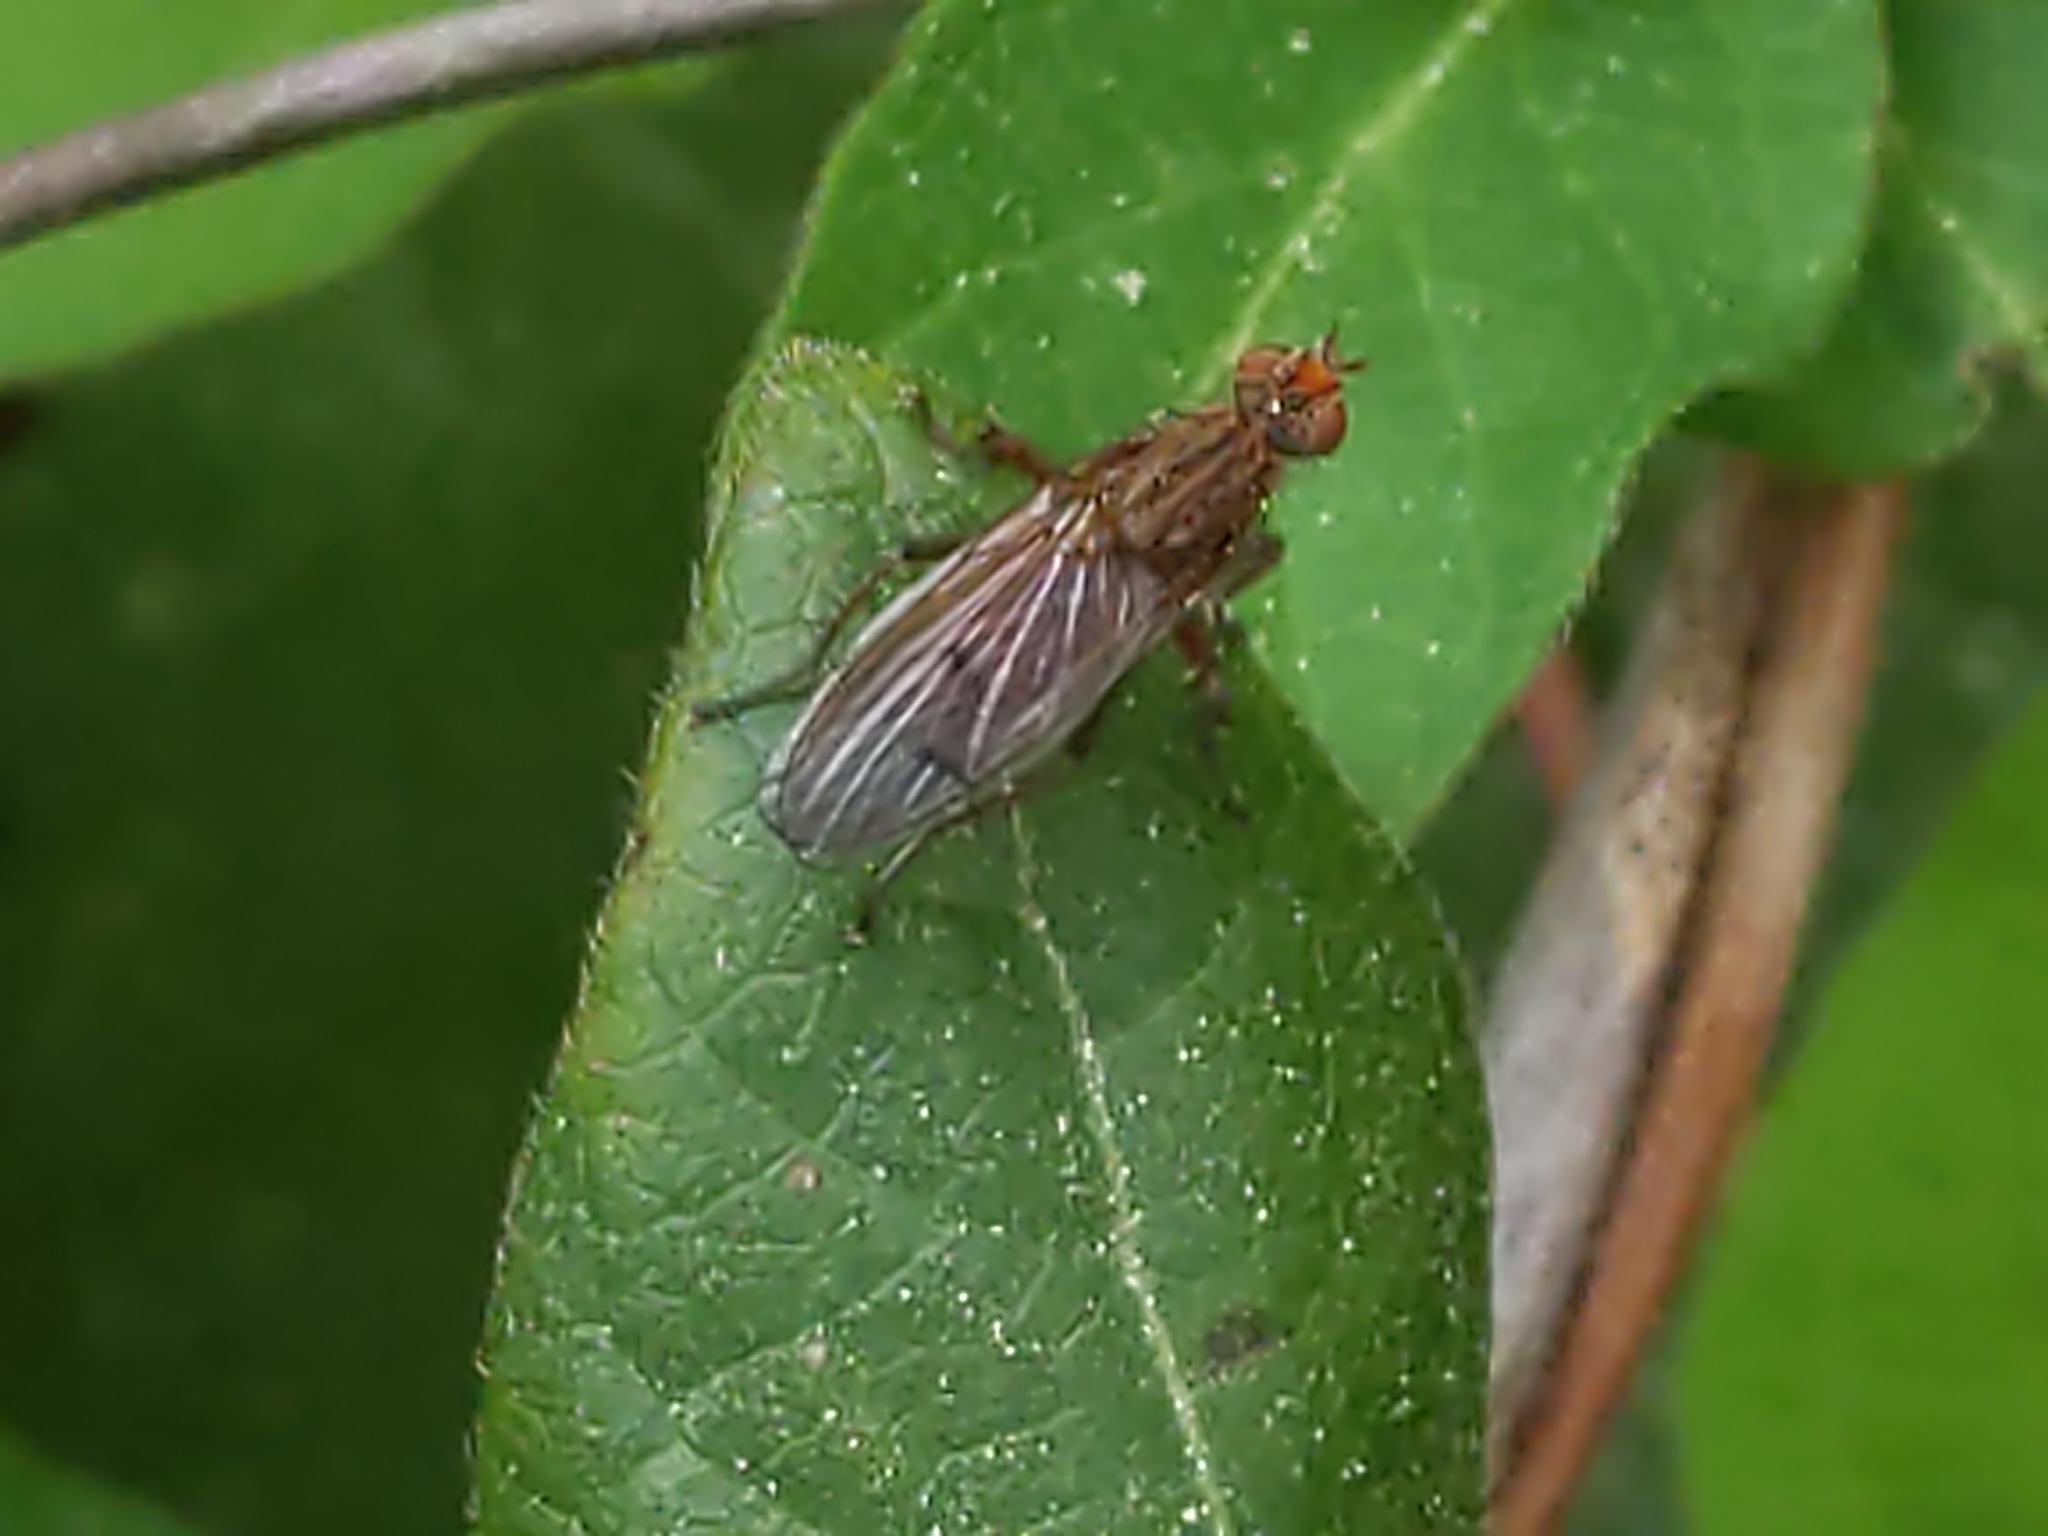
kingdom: Animalia
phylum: Arthropoda
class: Insecta
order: Diptera
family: Scathophagidae
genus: Scathophaga
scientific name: Scathophaga
